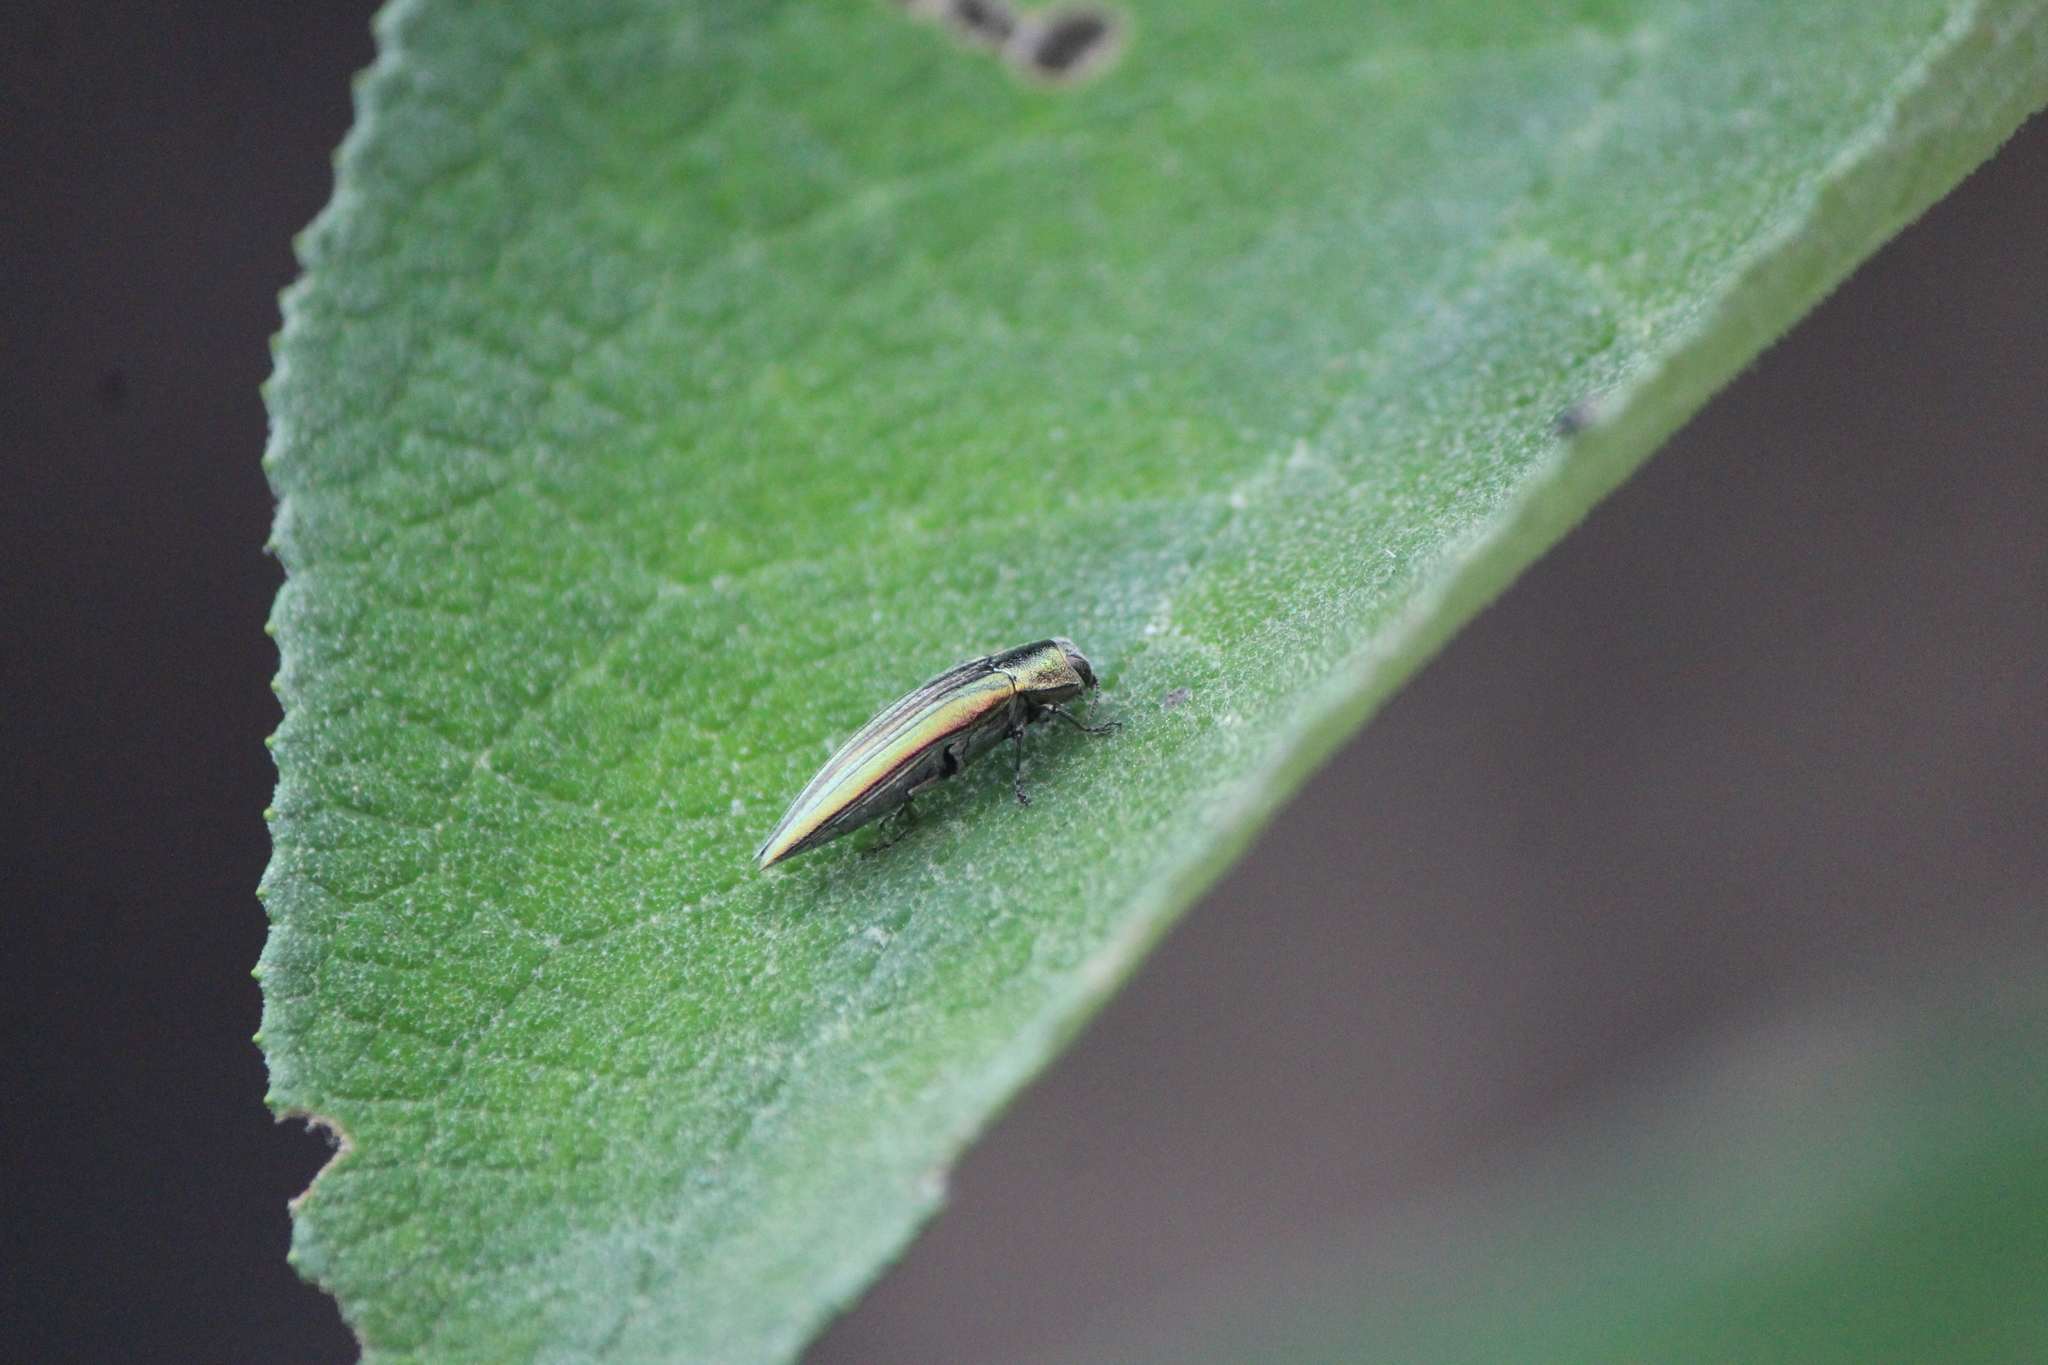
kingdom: Animalia
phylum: Arthropoda
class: Insecta
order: Coleoptera
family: Buprestidae
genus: Agrilus
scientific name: Agrilus sulcatulus
